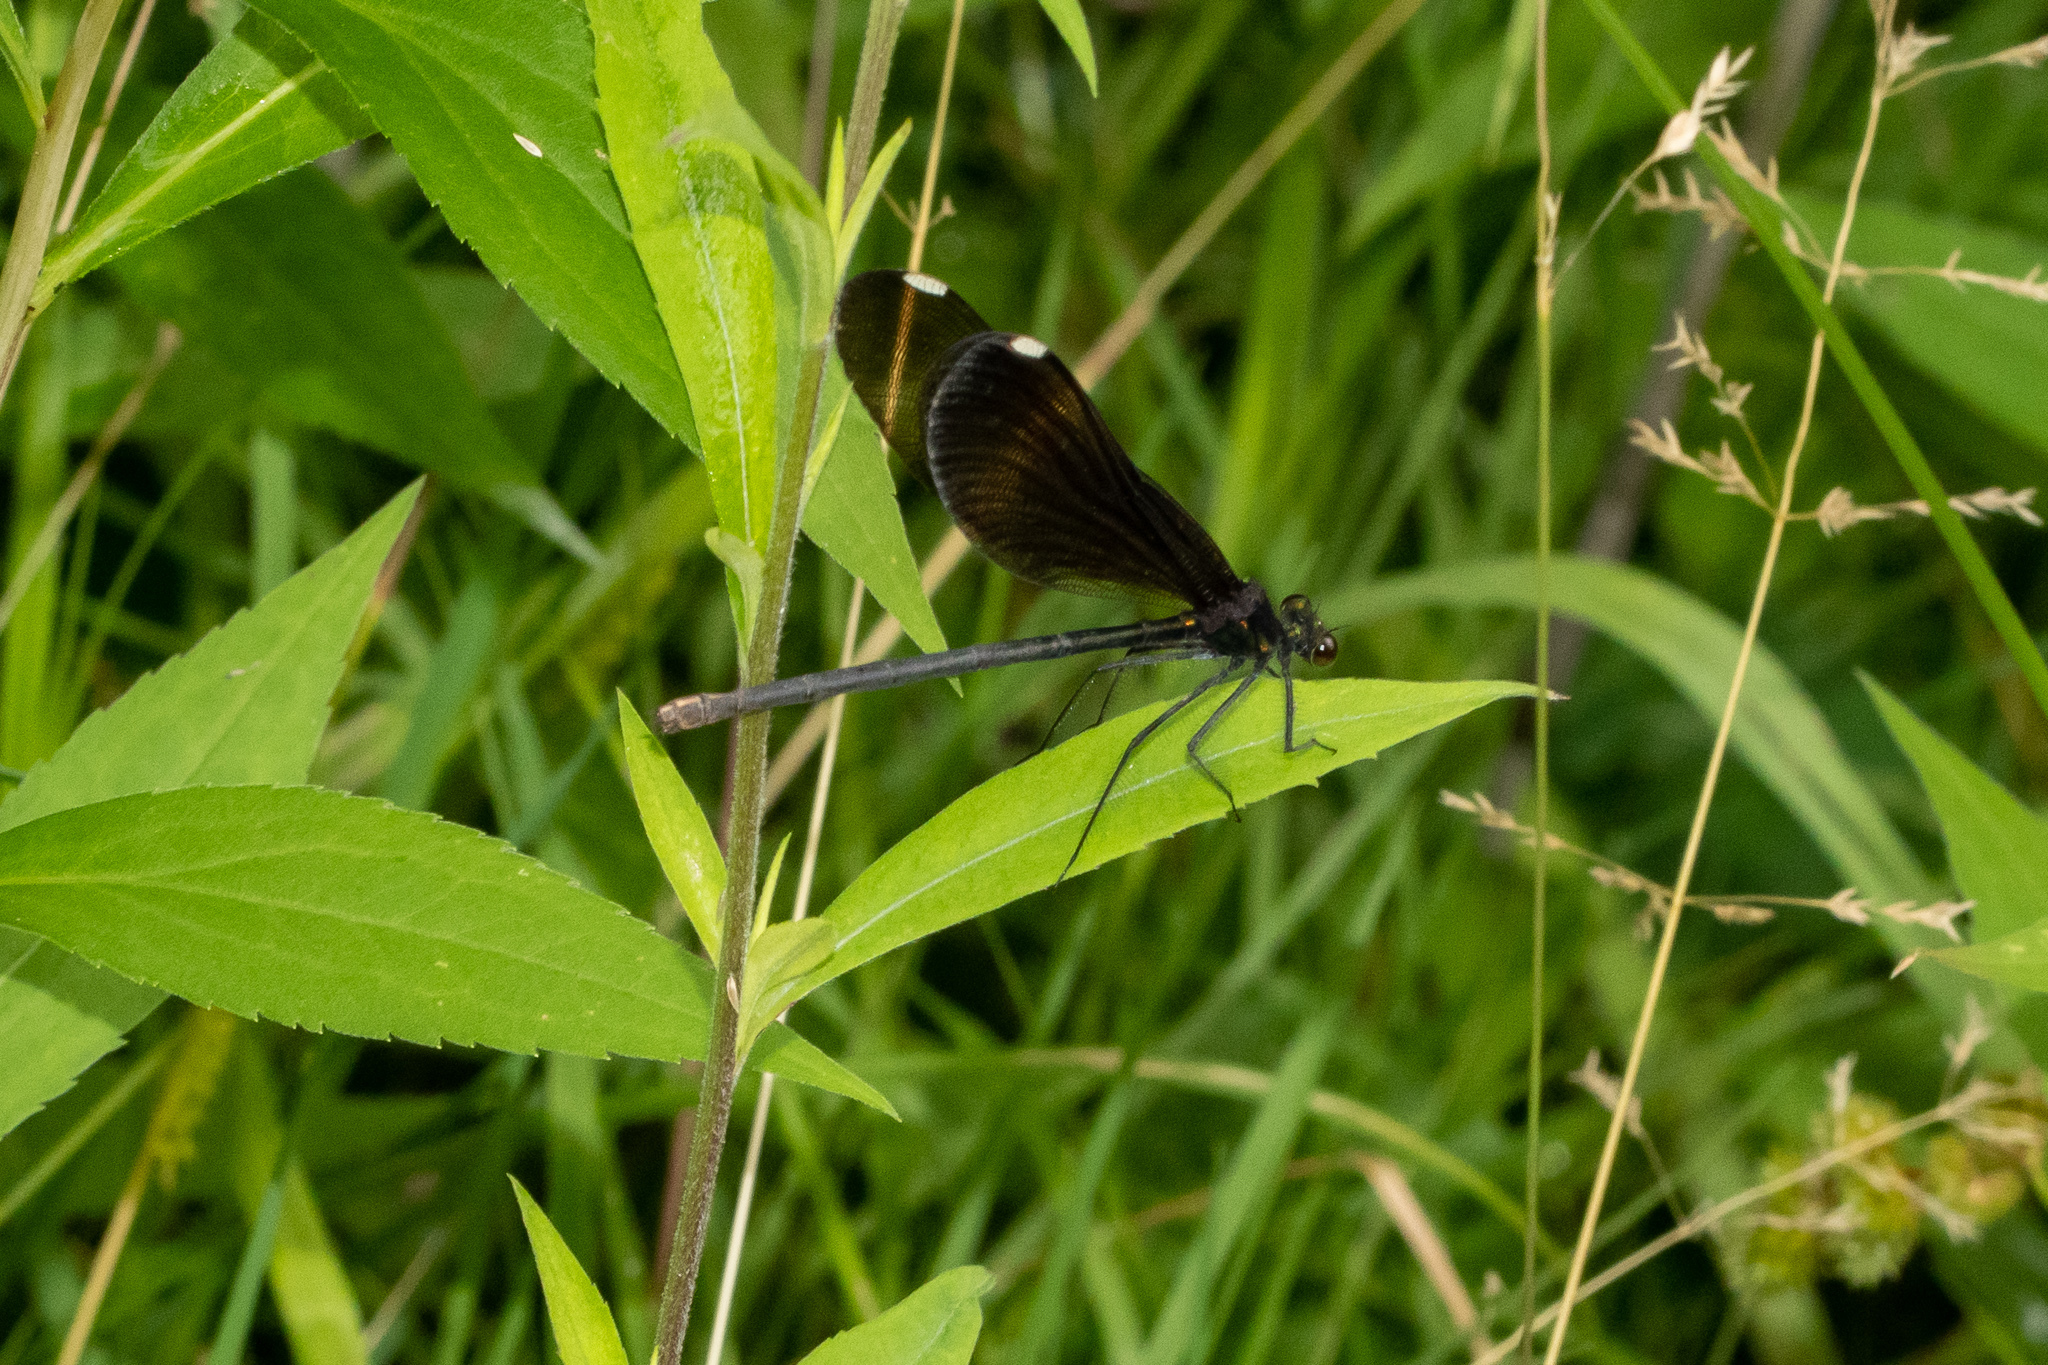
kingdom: Animalia
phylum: Arthropoda
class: Insecta
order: Odonata
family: Calopterygidae
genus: Calopteryx
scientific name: Calopteryx maculata
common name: Ebony jewelwing
